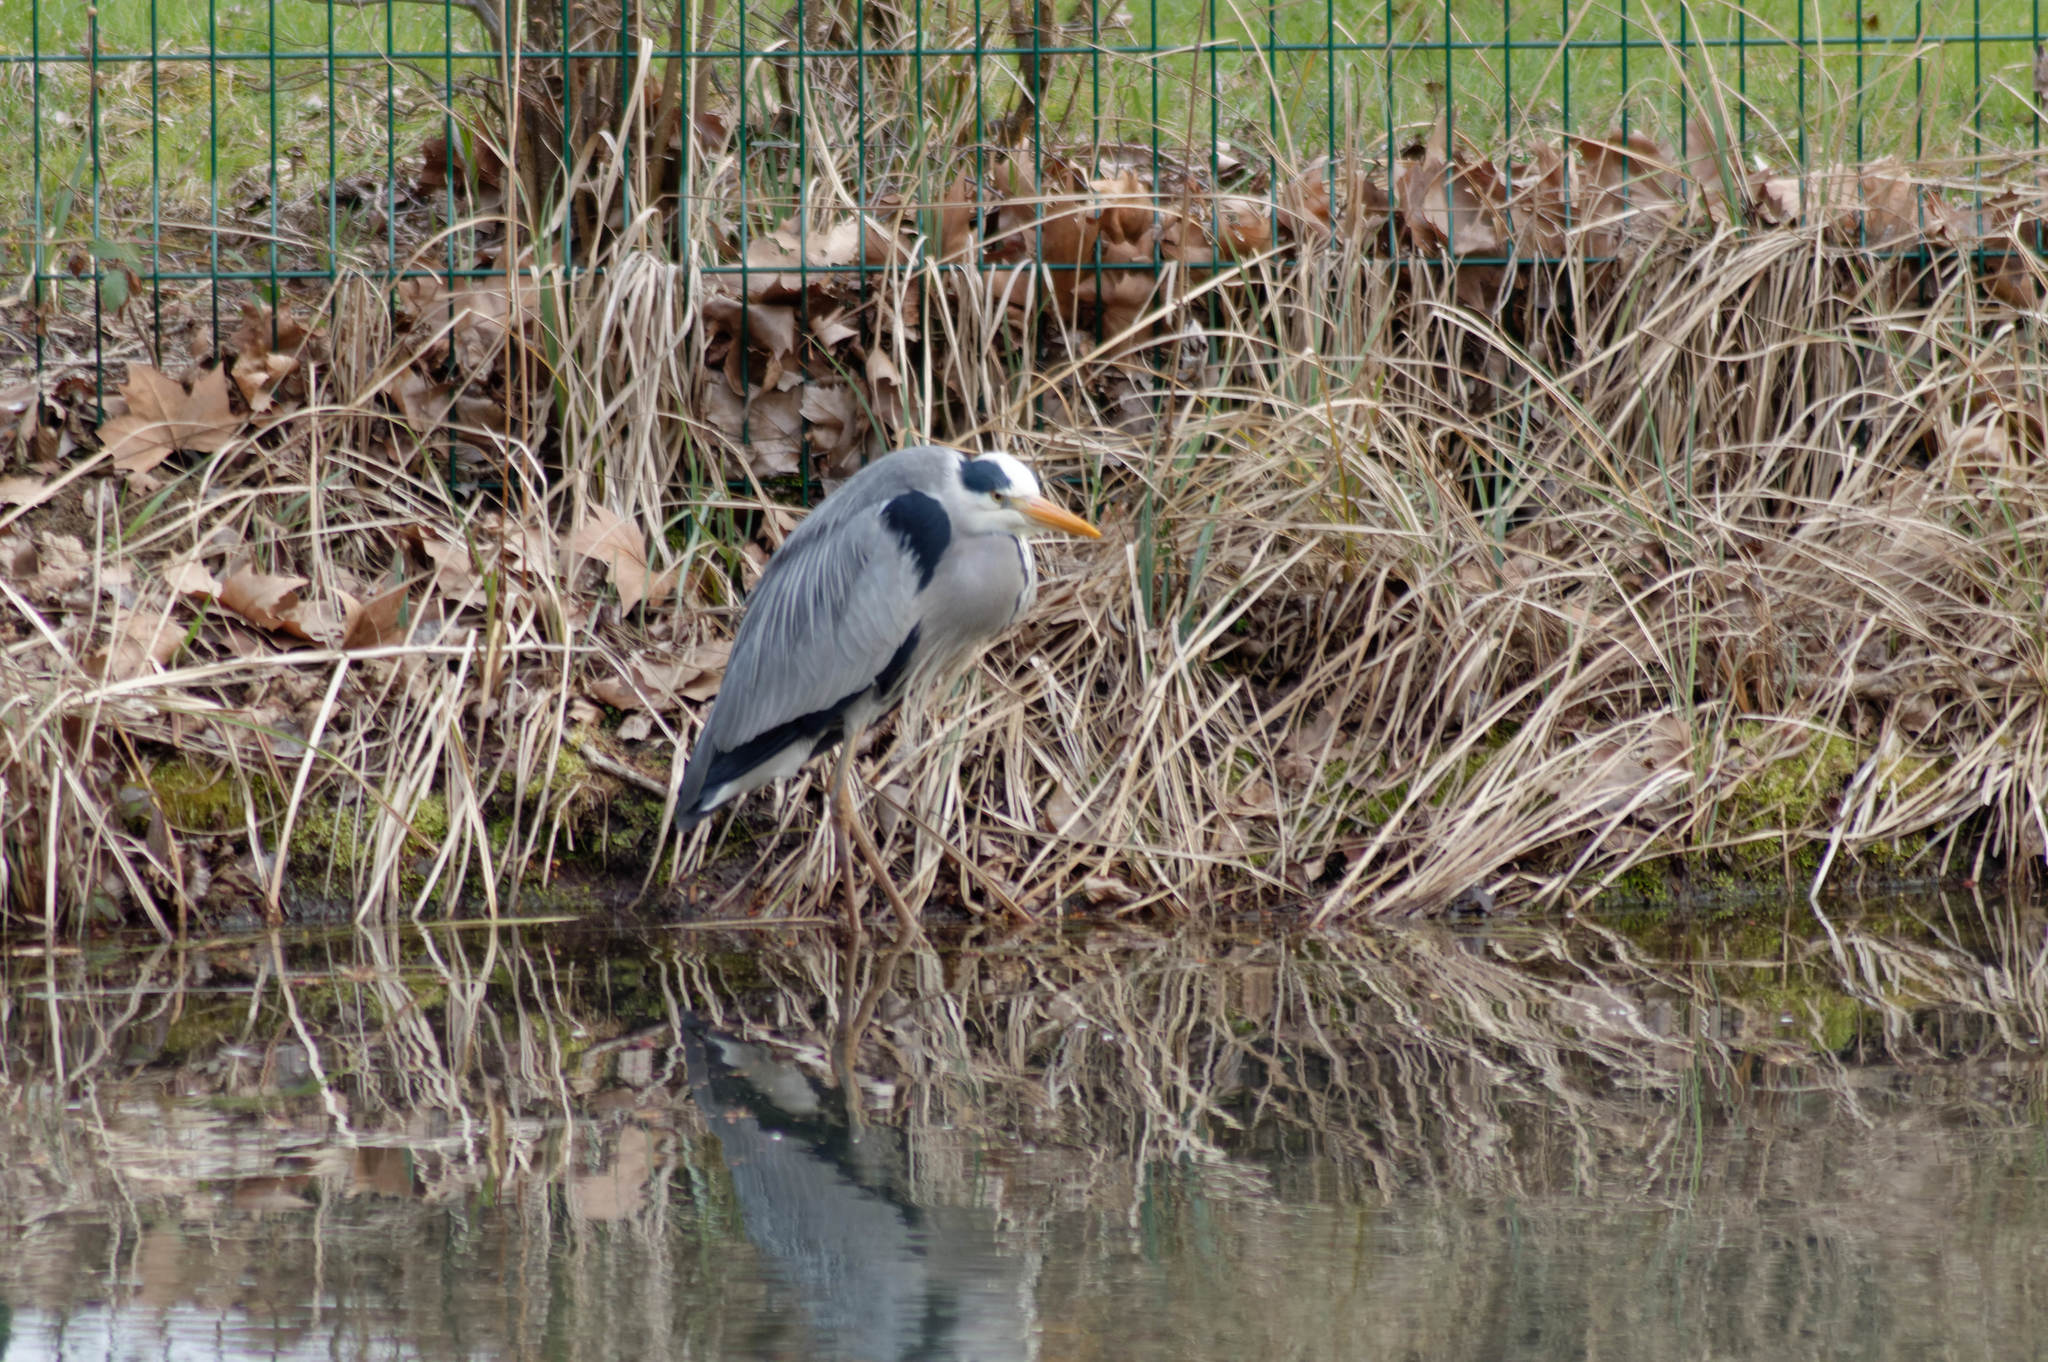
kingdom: Animalia
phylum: Chordata
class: Aves
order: Pelecaniformes
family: Ardeidae
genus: Ardea
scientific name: Ardea cinerea
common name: Grey heron
